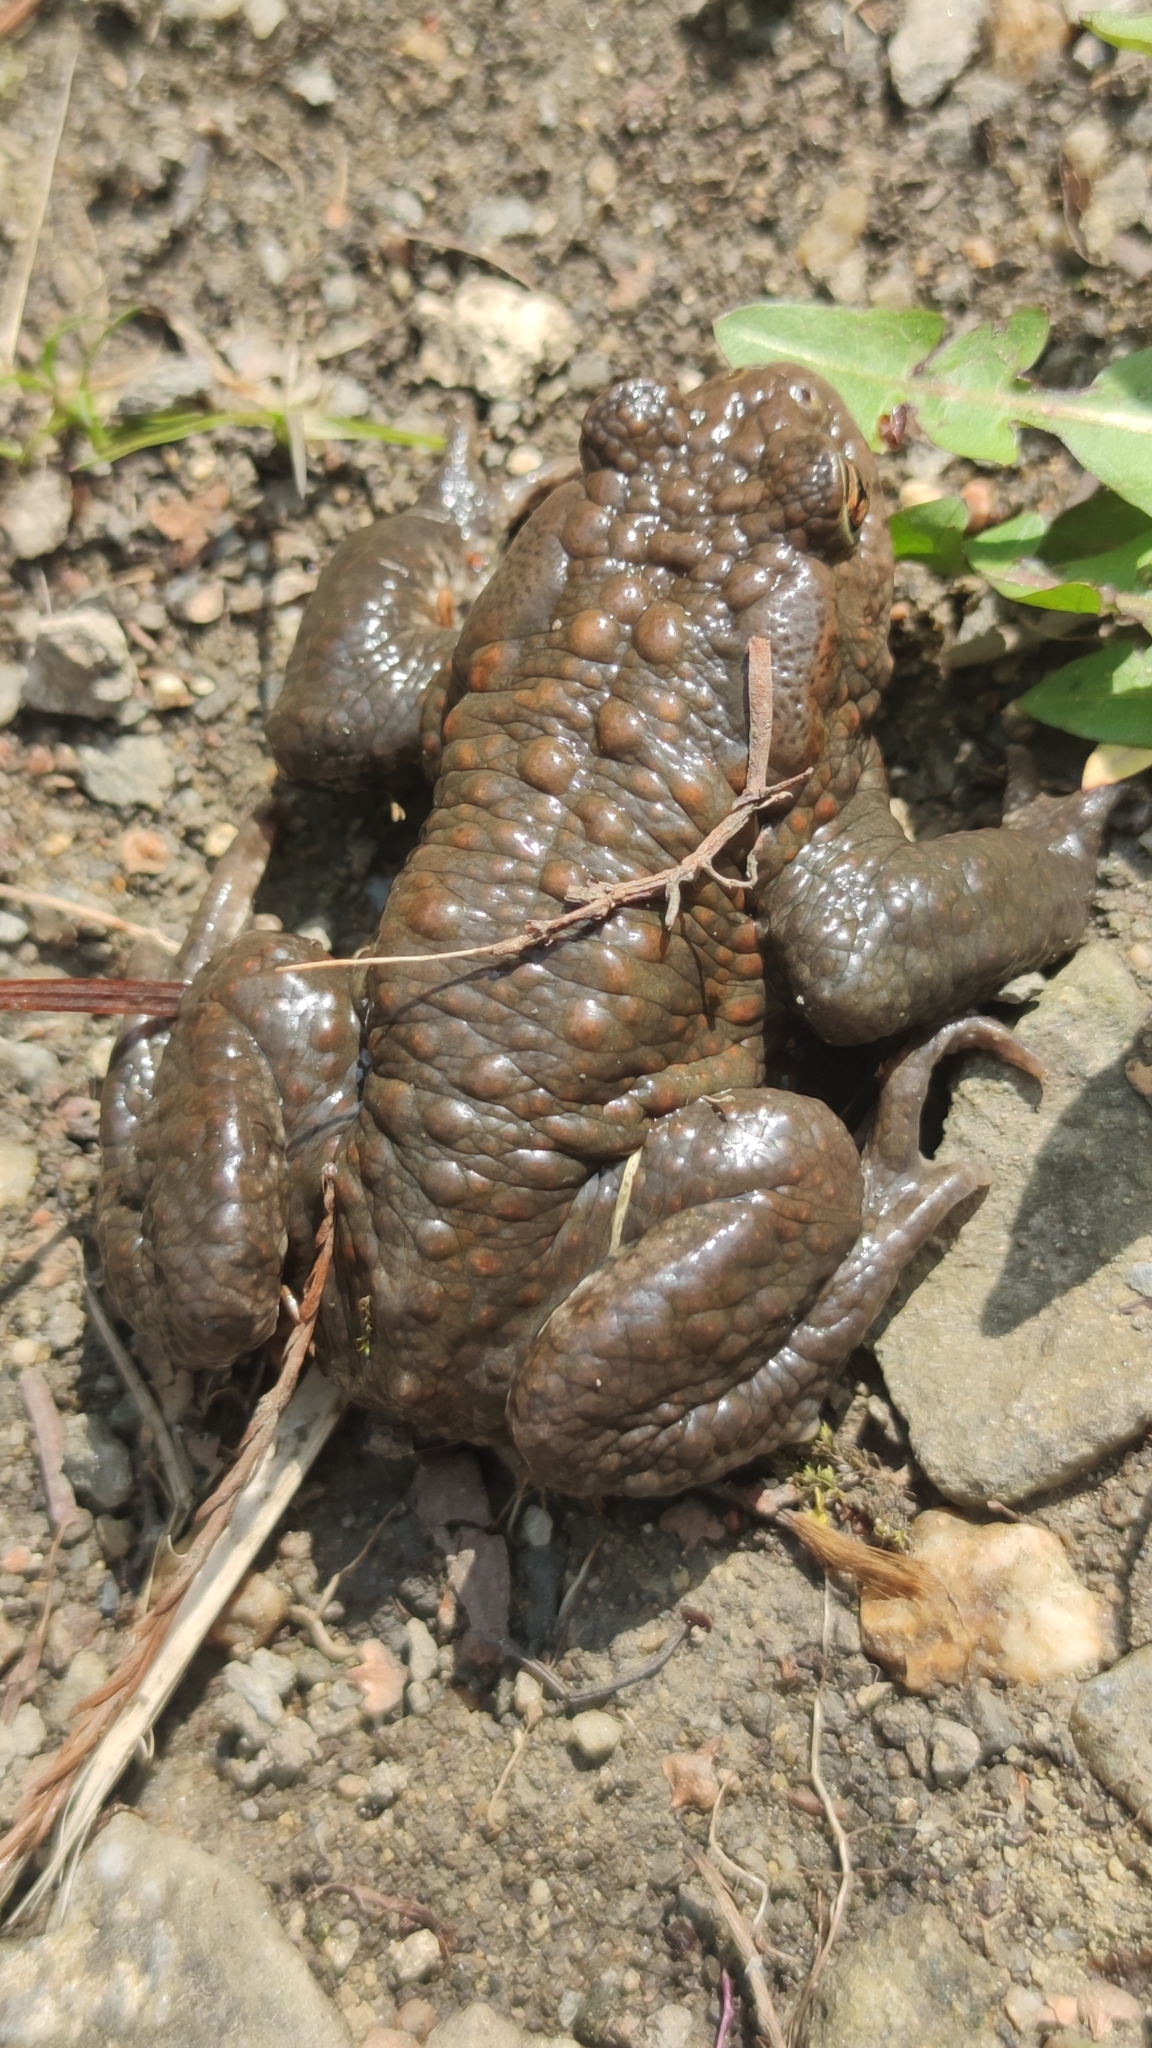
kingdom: Animalia
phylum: Chordata
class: Amphibia
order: Anura
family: Bufonidae
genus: Bufo
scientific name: Bufo bufo
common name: Common toad
